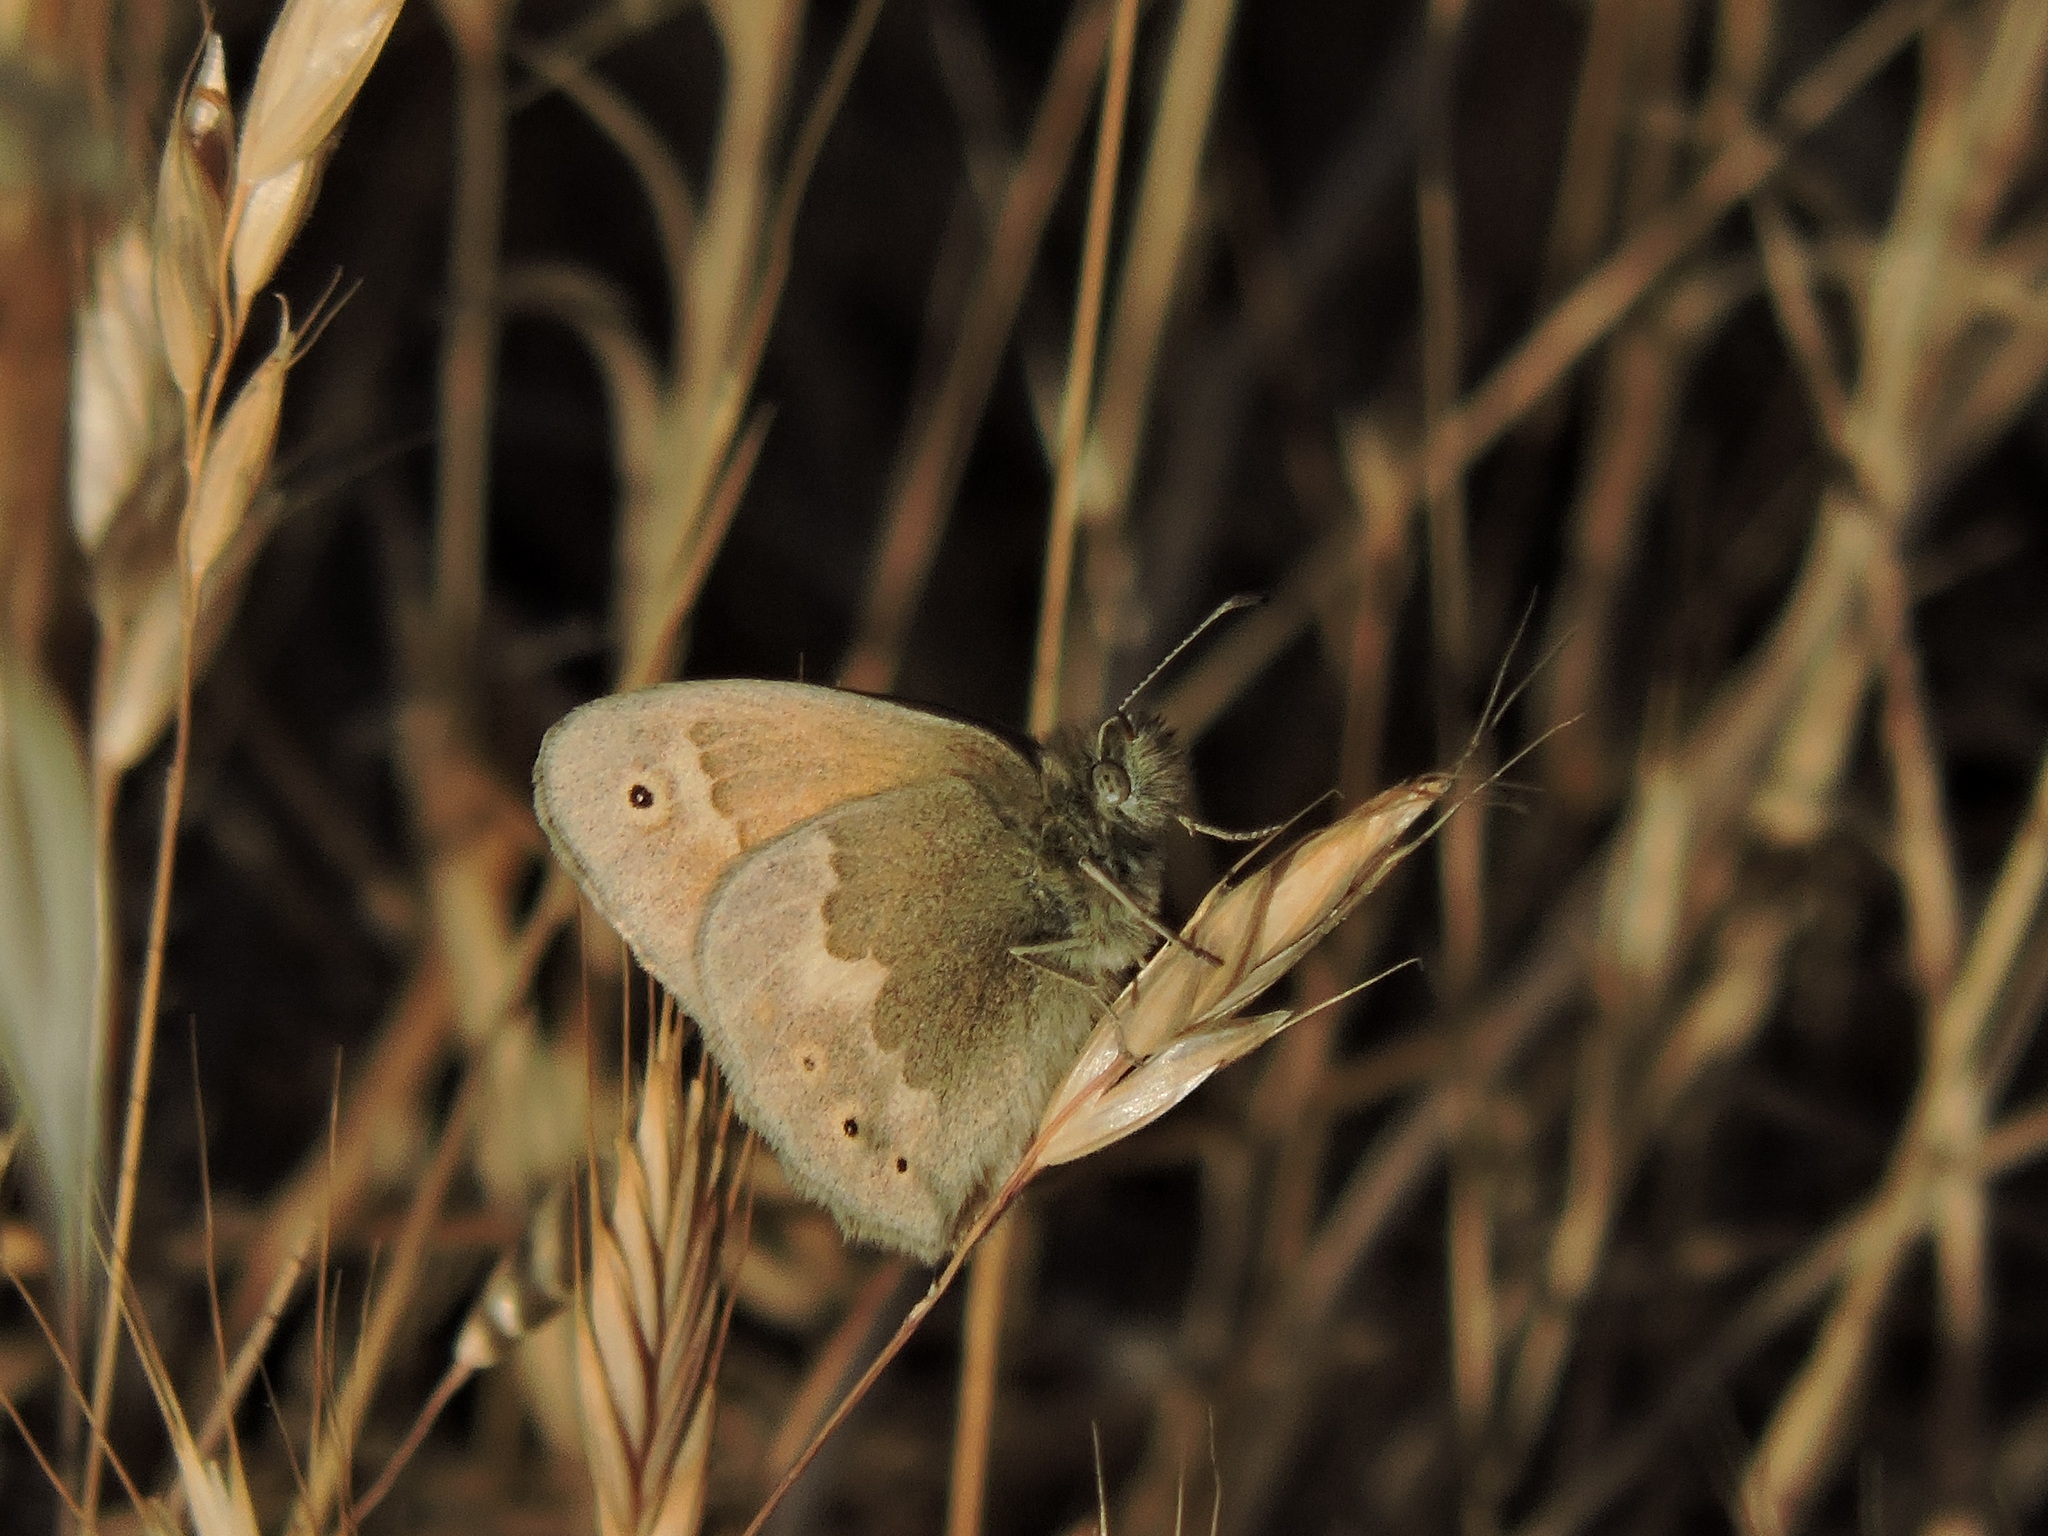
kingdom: Animalia
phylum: Arthropoda
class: Insecta
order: Lepidoptera
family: Nymphalidae
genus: Coenonympha
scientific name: Coenonympha california
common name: Common ringlet
